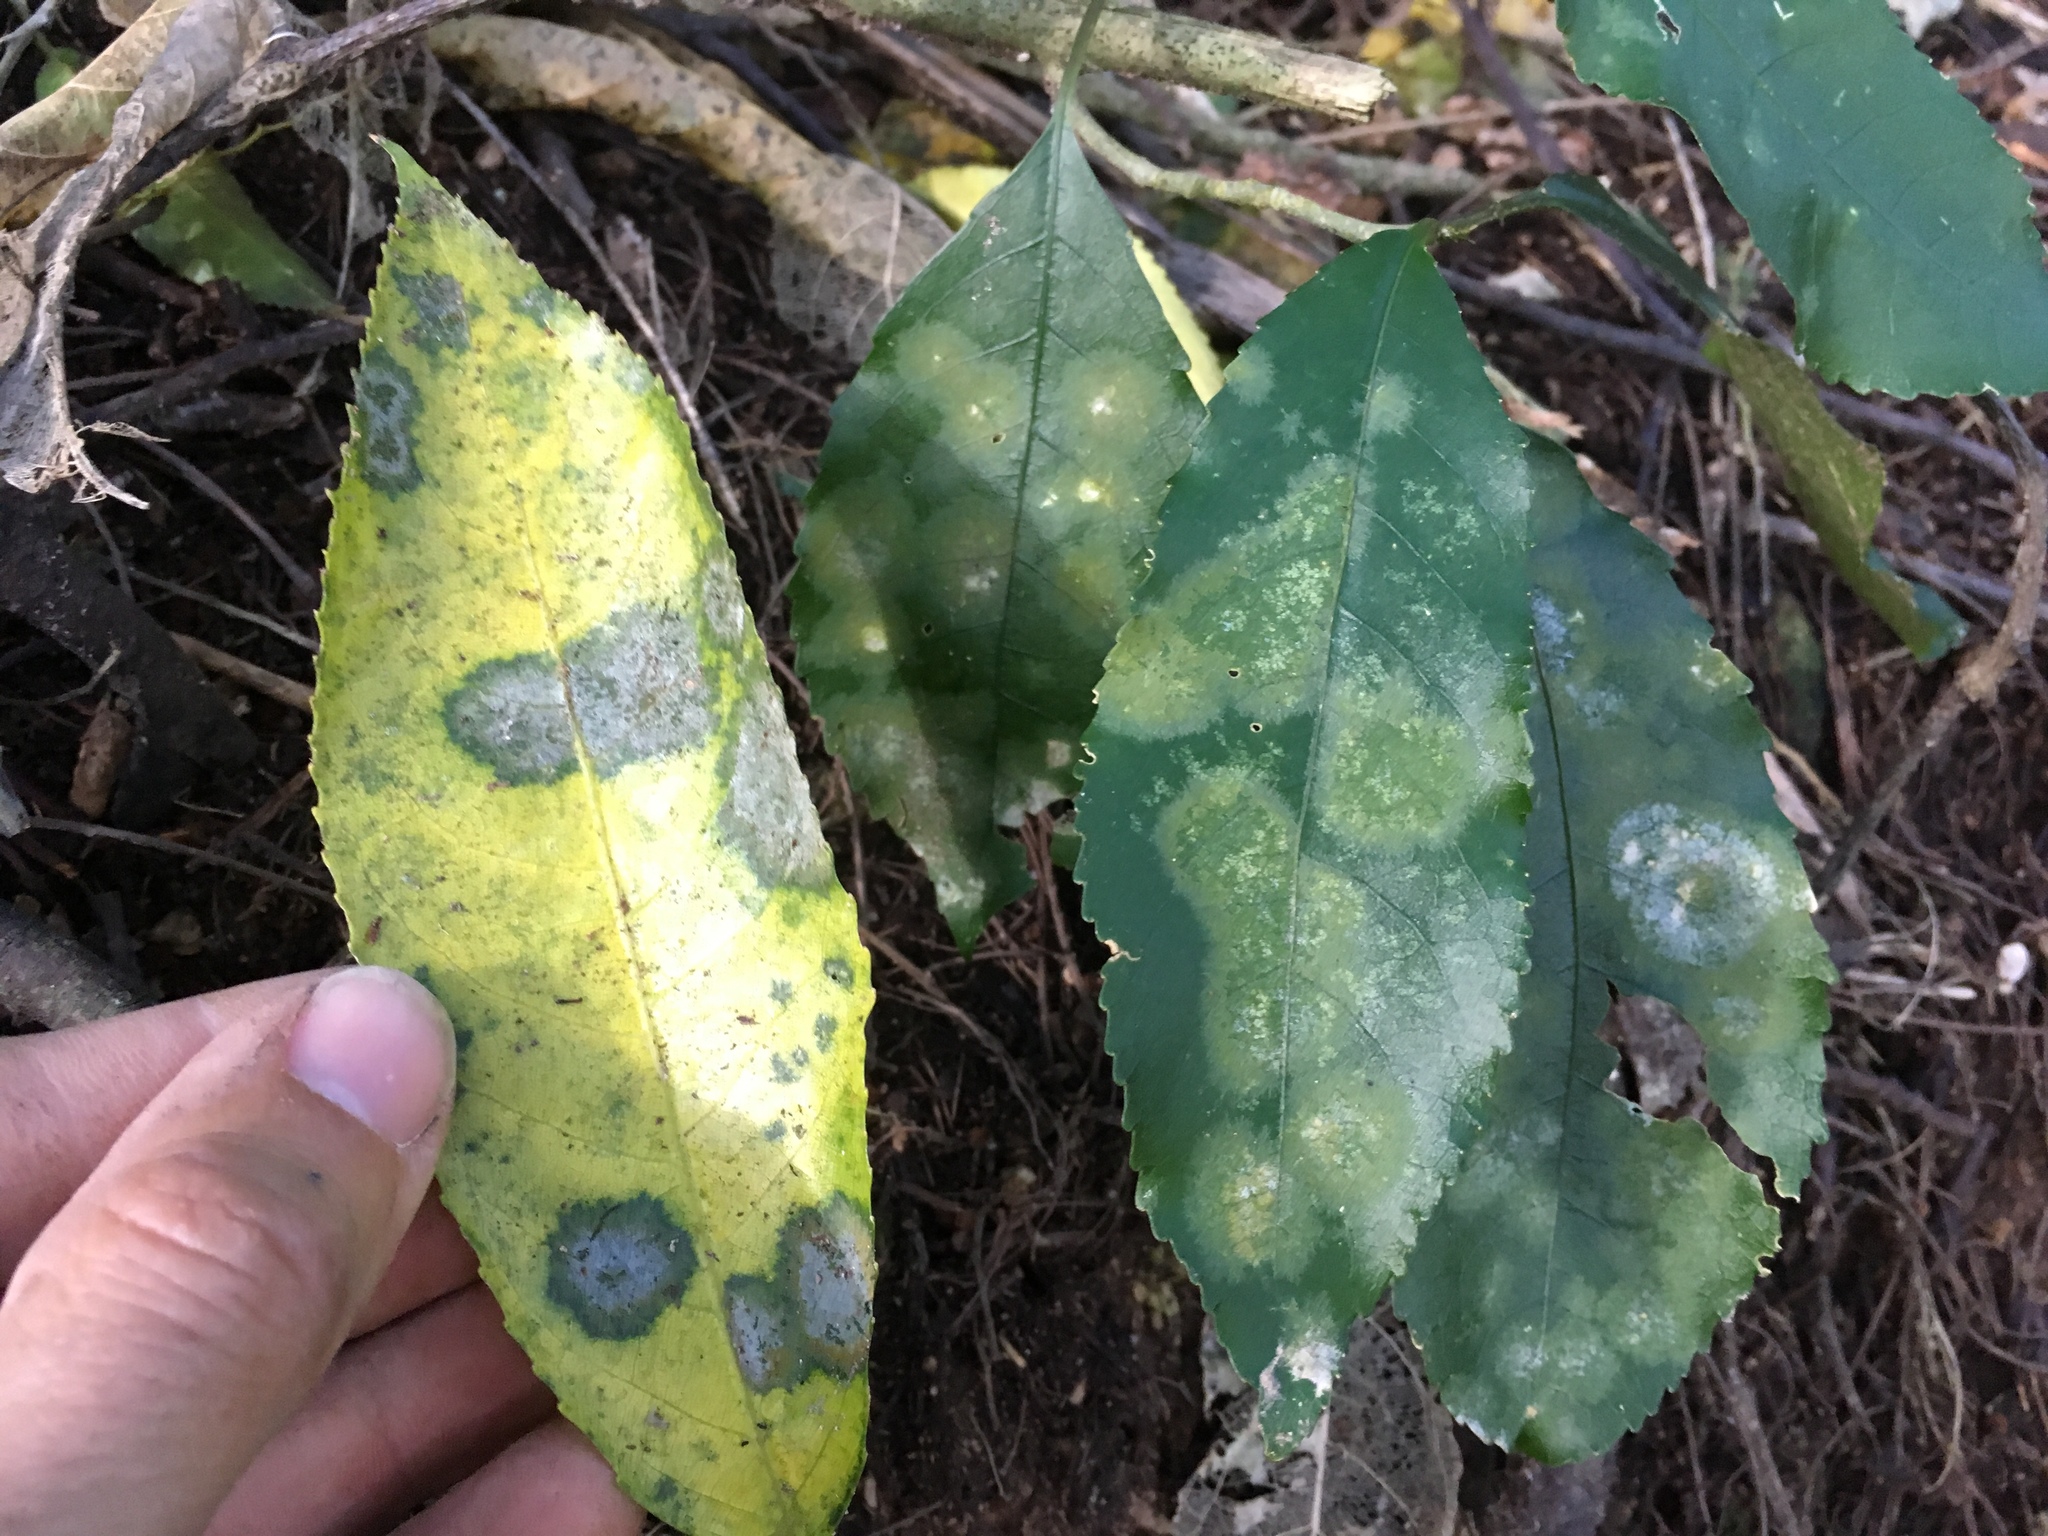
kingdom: Plantae
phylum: Chlorophyta
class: Ulvophyceae
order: Trentepohliales
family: Trentepohliaceae
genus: Cephaleuros
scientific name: Cephaleuros
